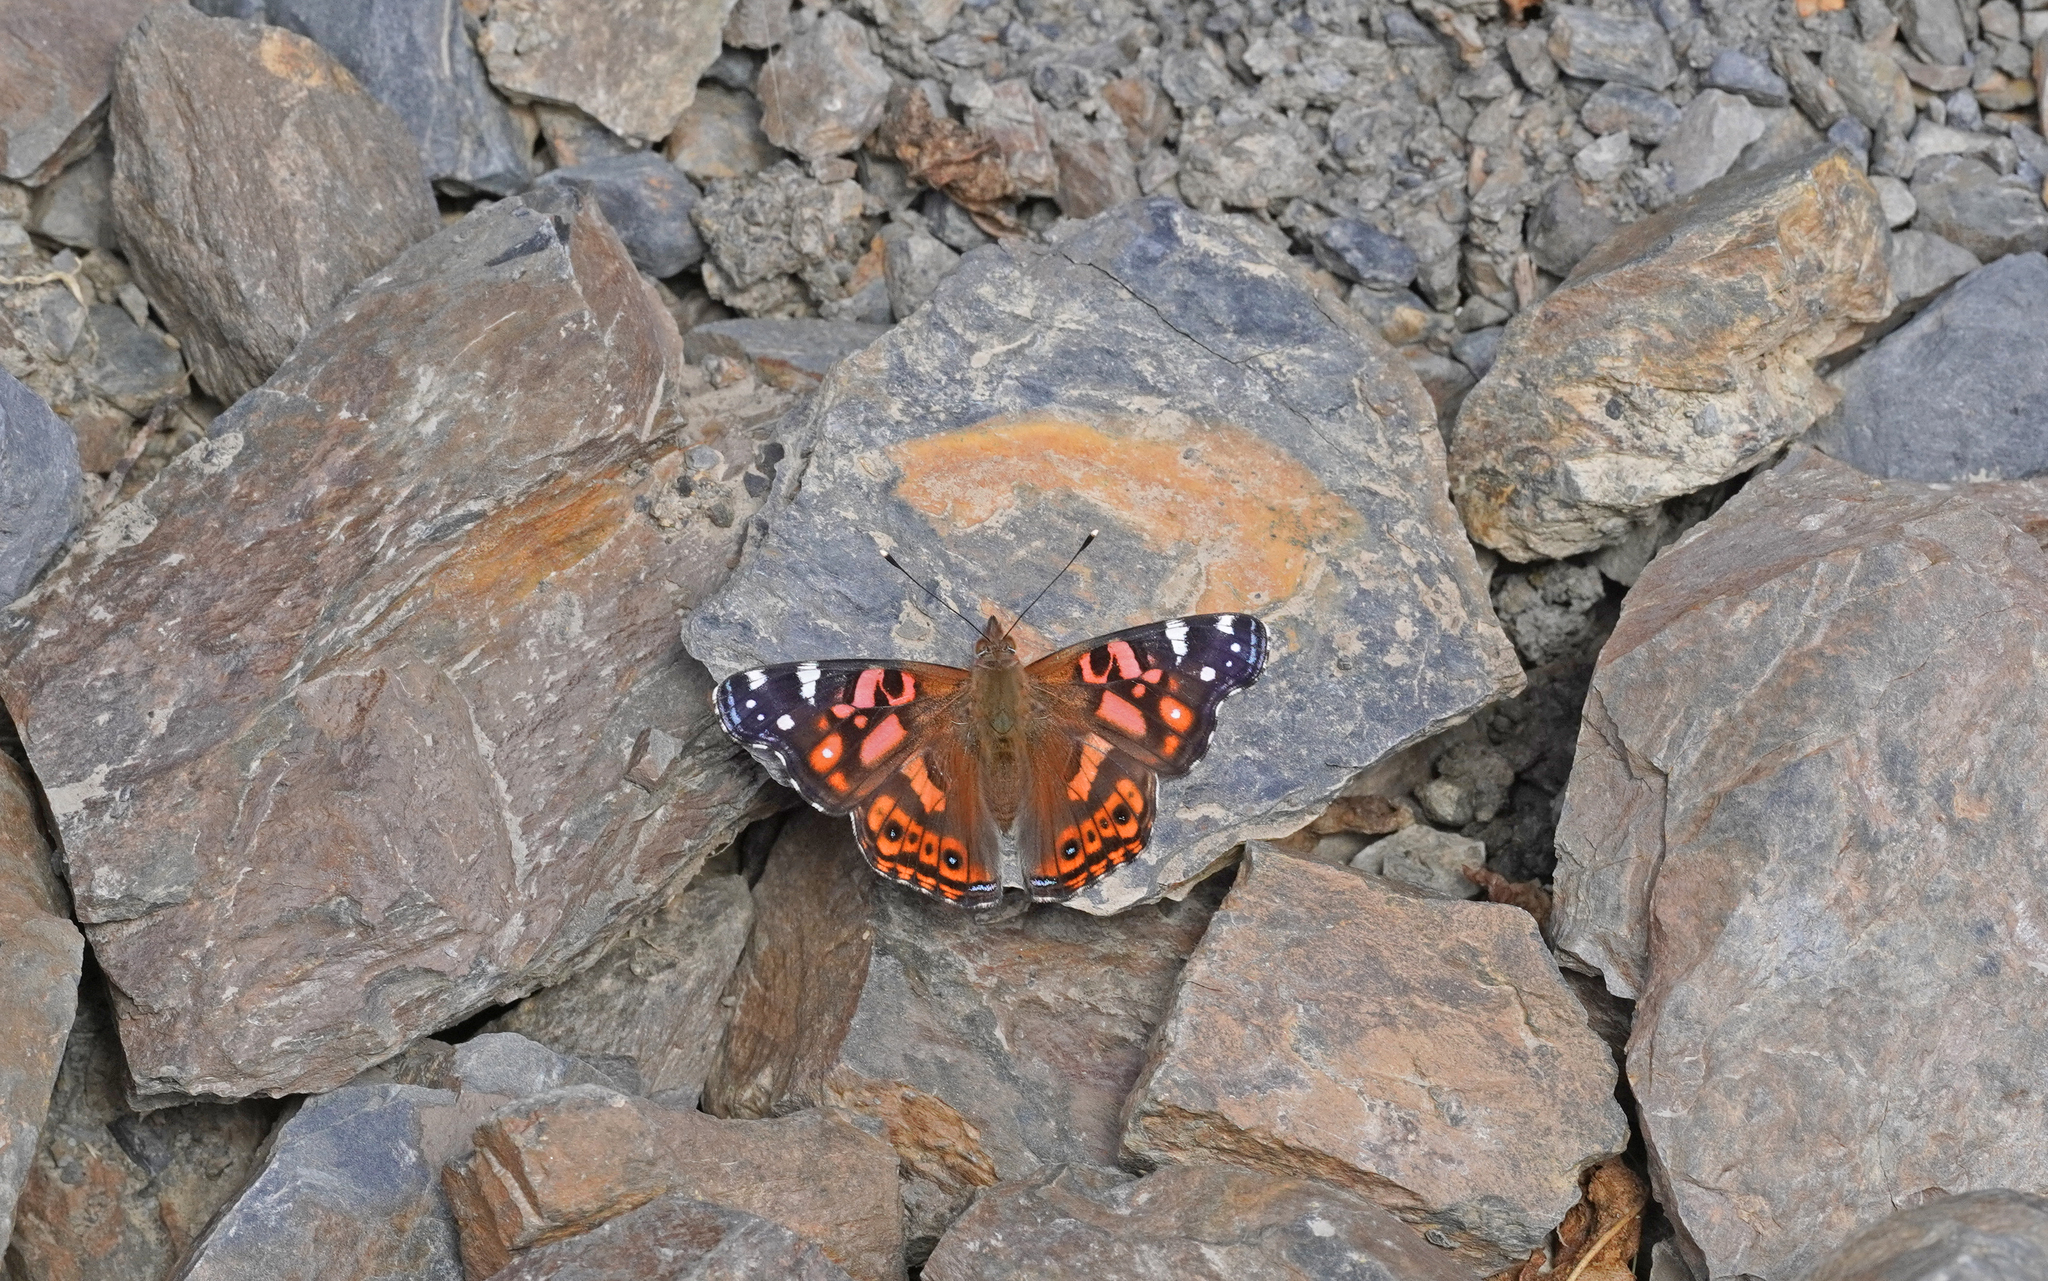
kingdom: Animalia
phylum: Arthropoda
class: Insecta
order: Lepidoptera
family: Nymphalidae
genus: Vanessa
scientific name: Vanessa altissima
